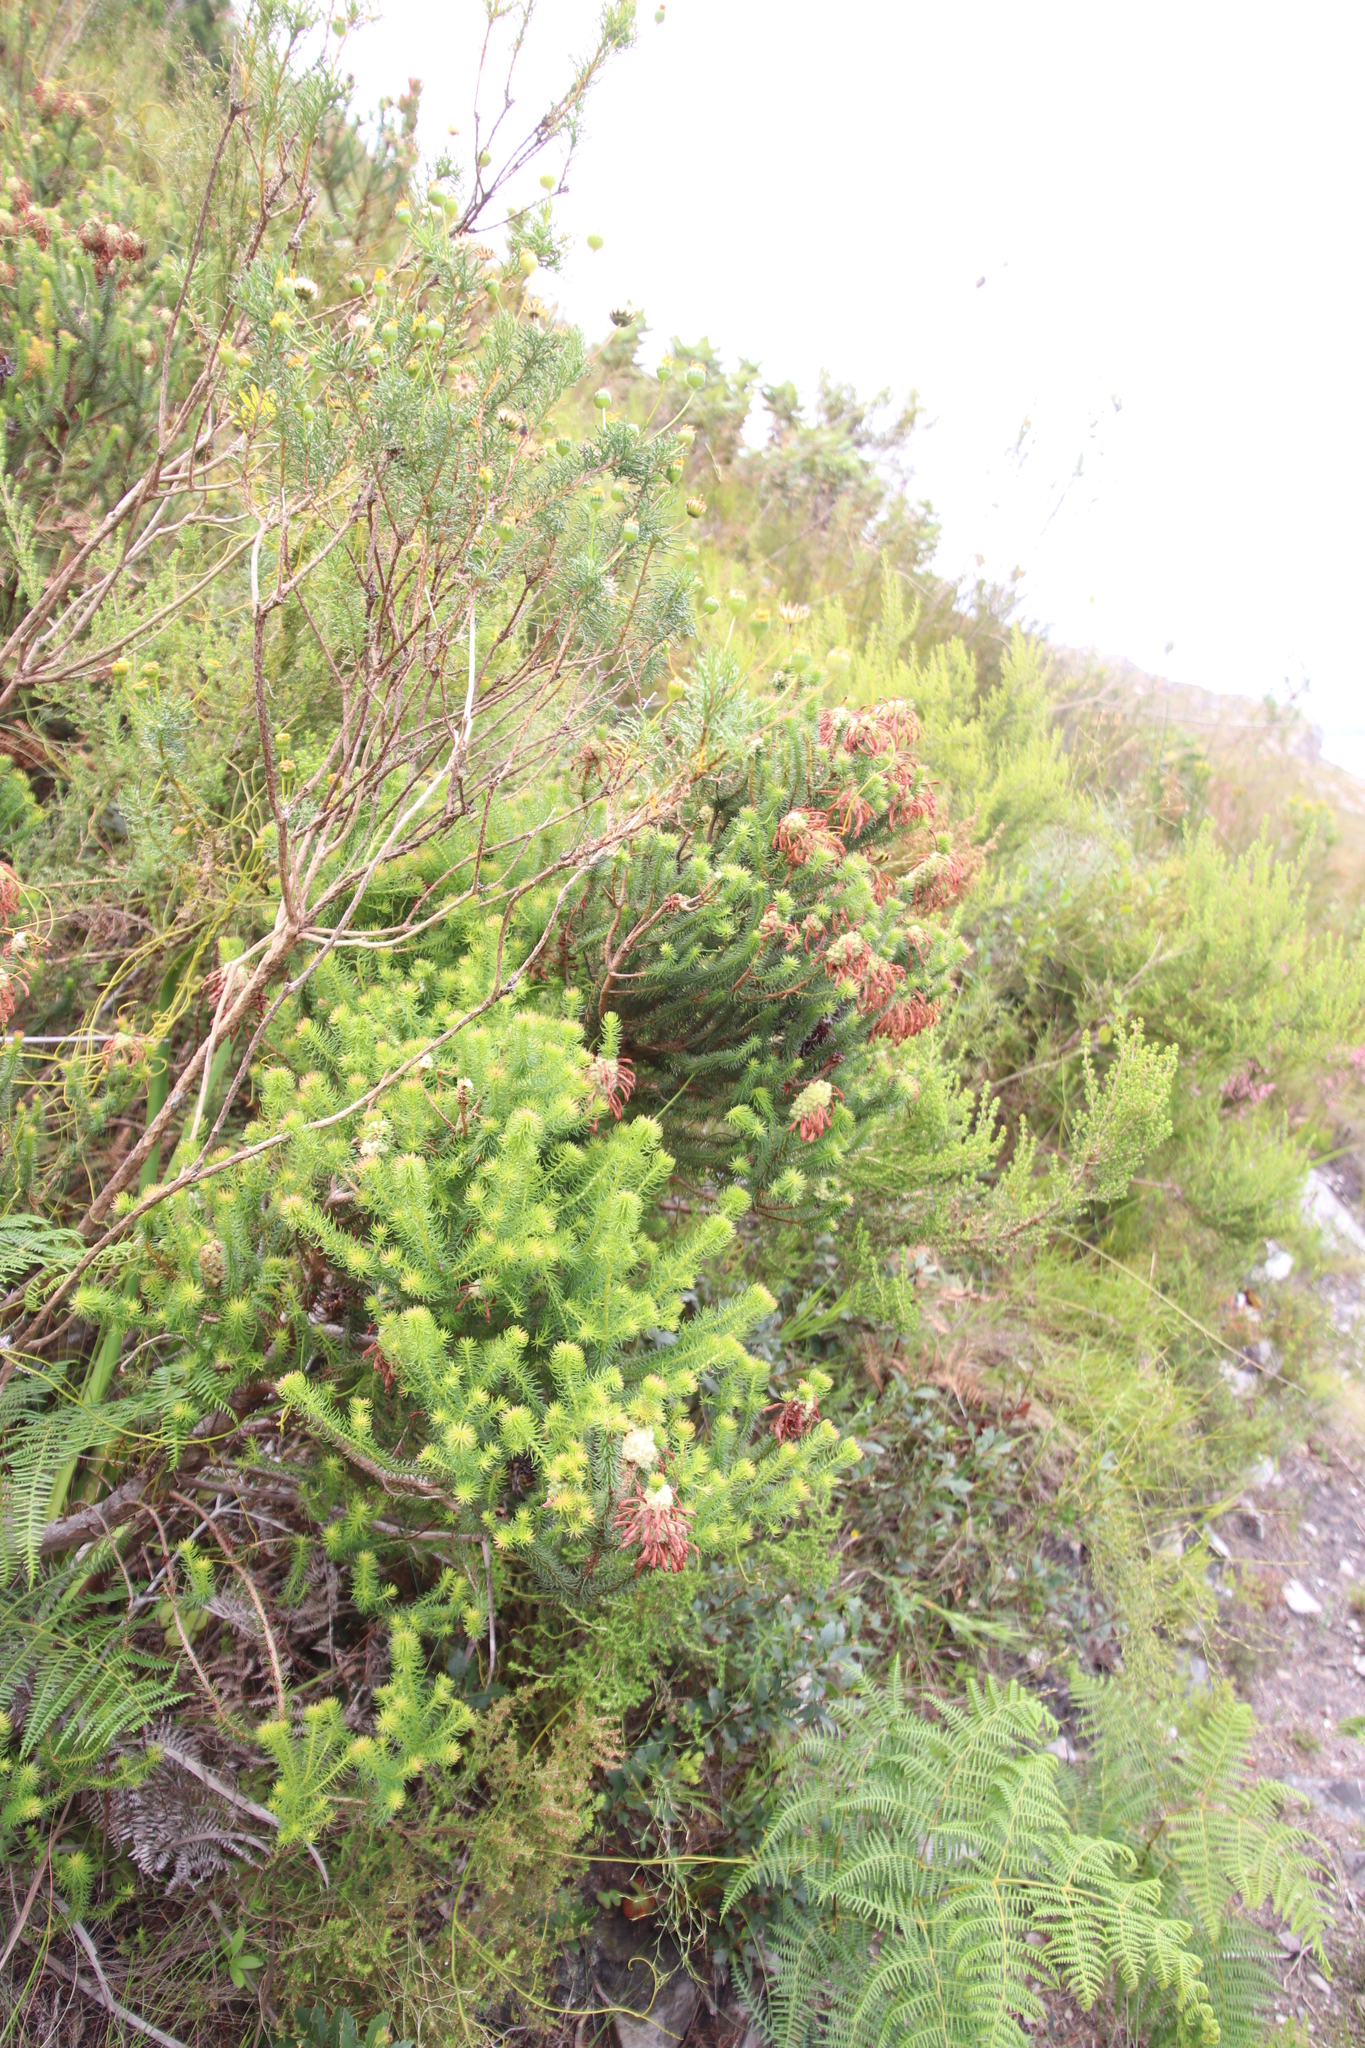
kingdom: Plantae
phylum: Tracheophyta
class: Magnoliopsida
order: Ericales
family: Ericaceae
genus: Erica
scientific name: Erica sessiliflora
